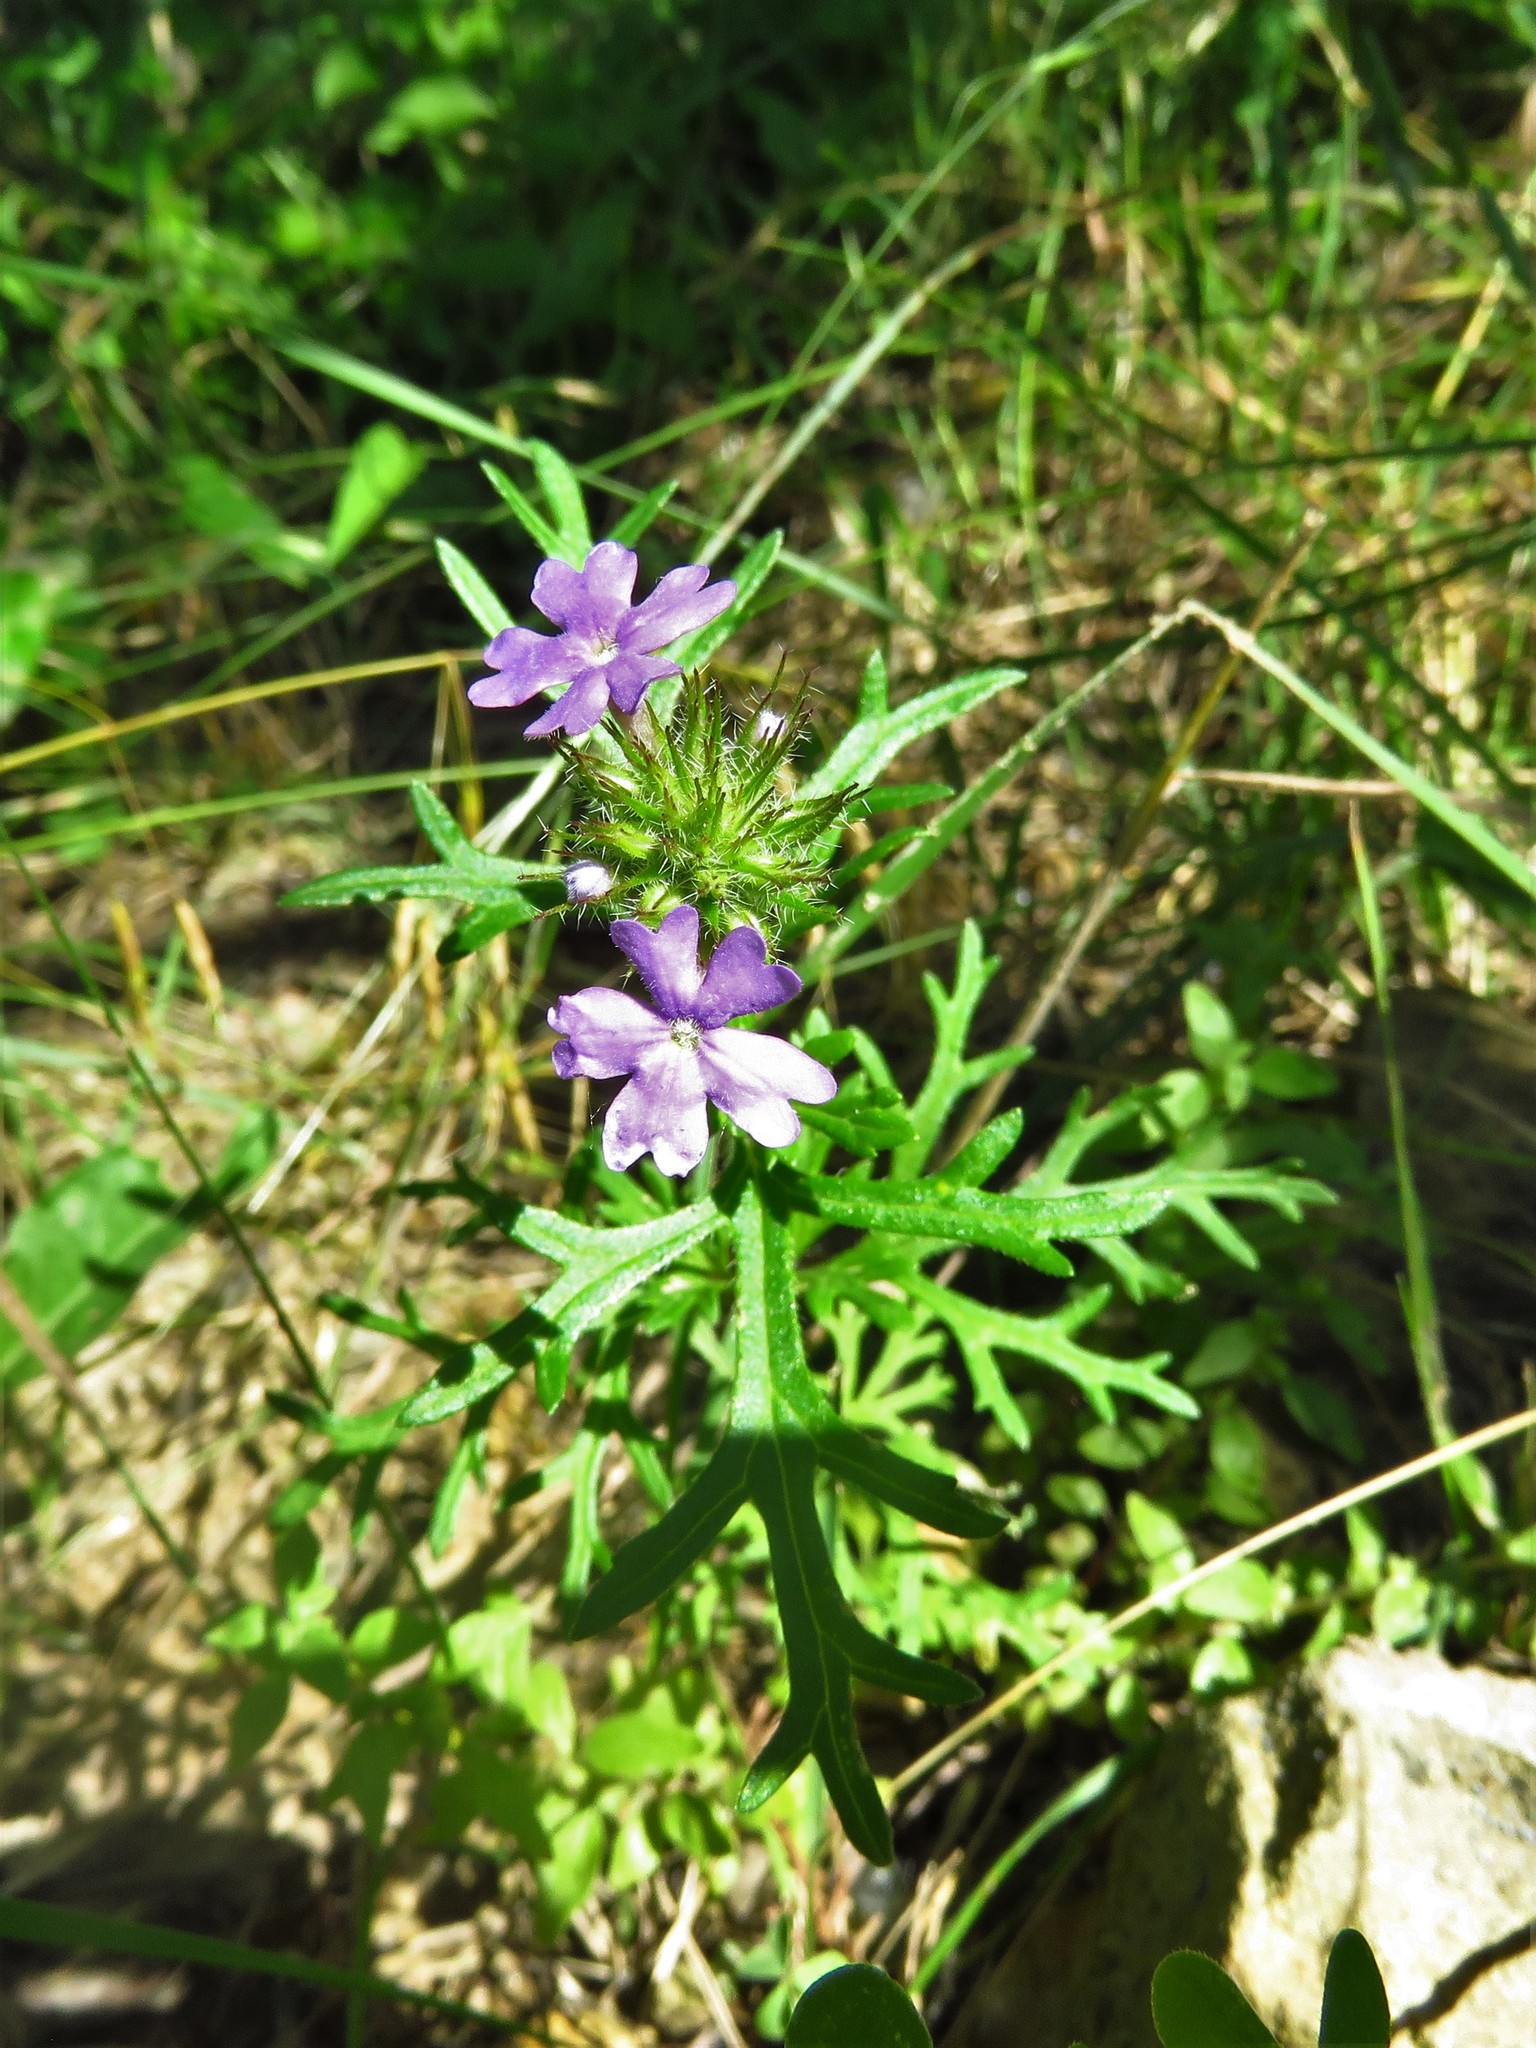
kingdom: Plantae
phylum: Tracheophyta
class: Magnoliopsida
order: Lamiales
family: Verbenaceae
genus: Verbena
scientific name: Verbena bipinnatifida
